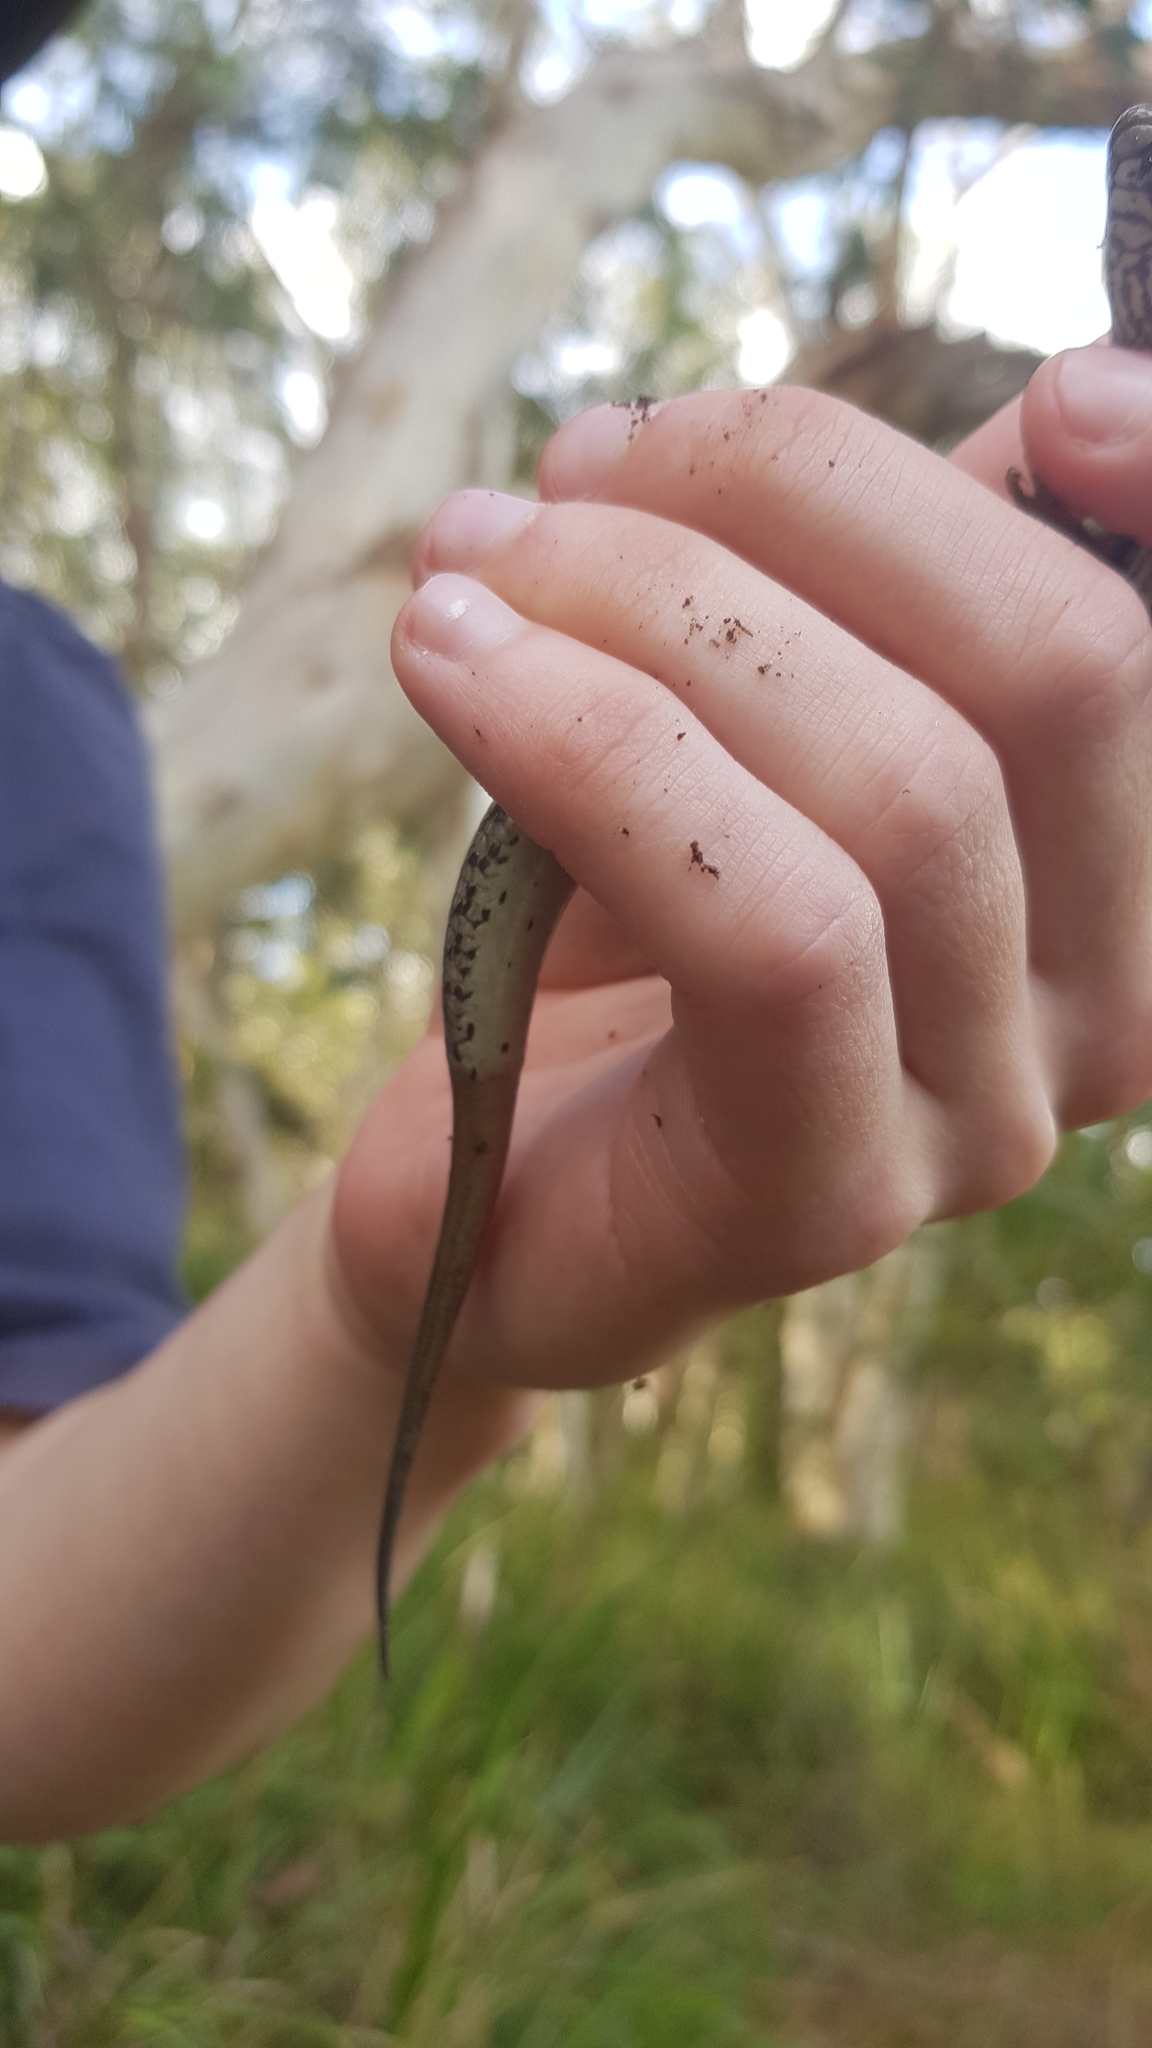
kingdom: Animalia
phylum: Chordata
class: Squamata
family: Scincidae
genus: Eulamprus
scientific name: Eulamprus quoyii
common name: Eastern water skink
